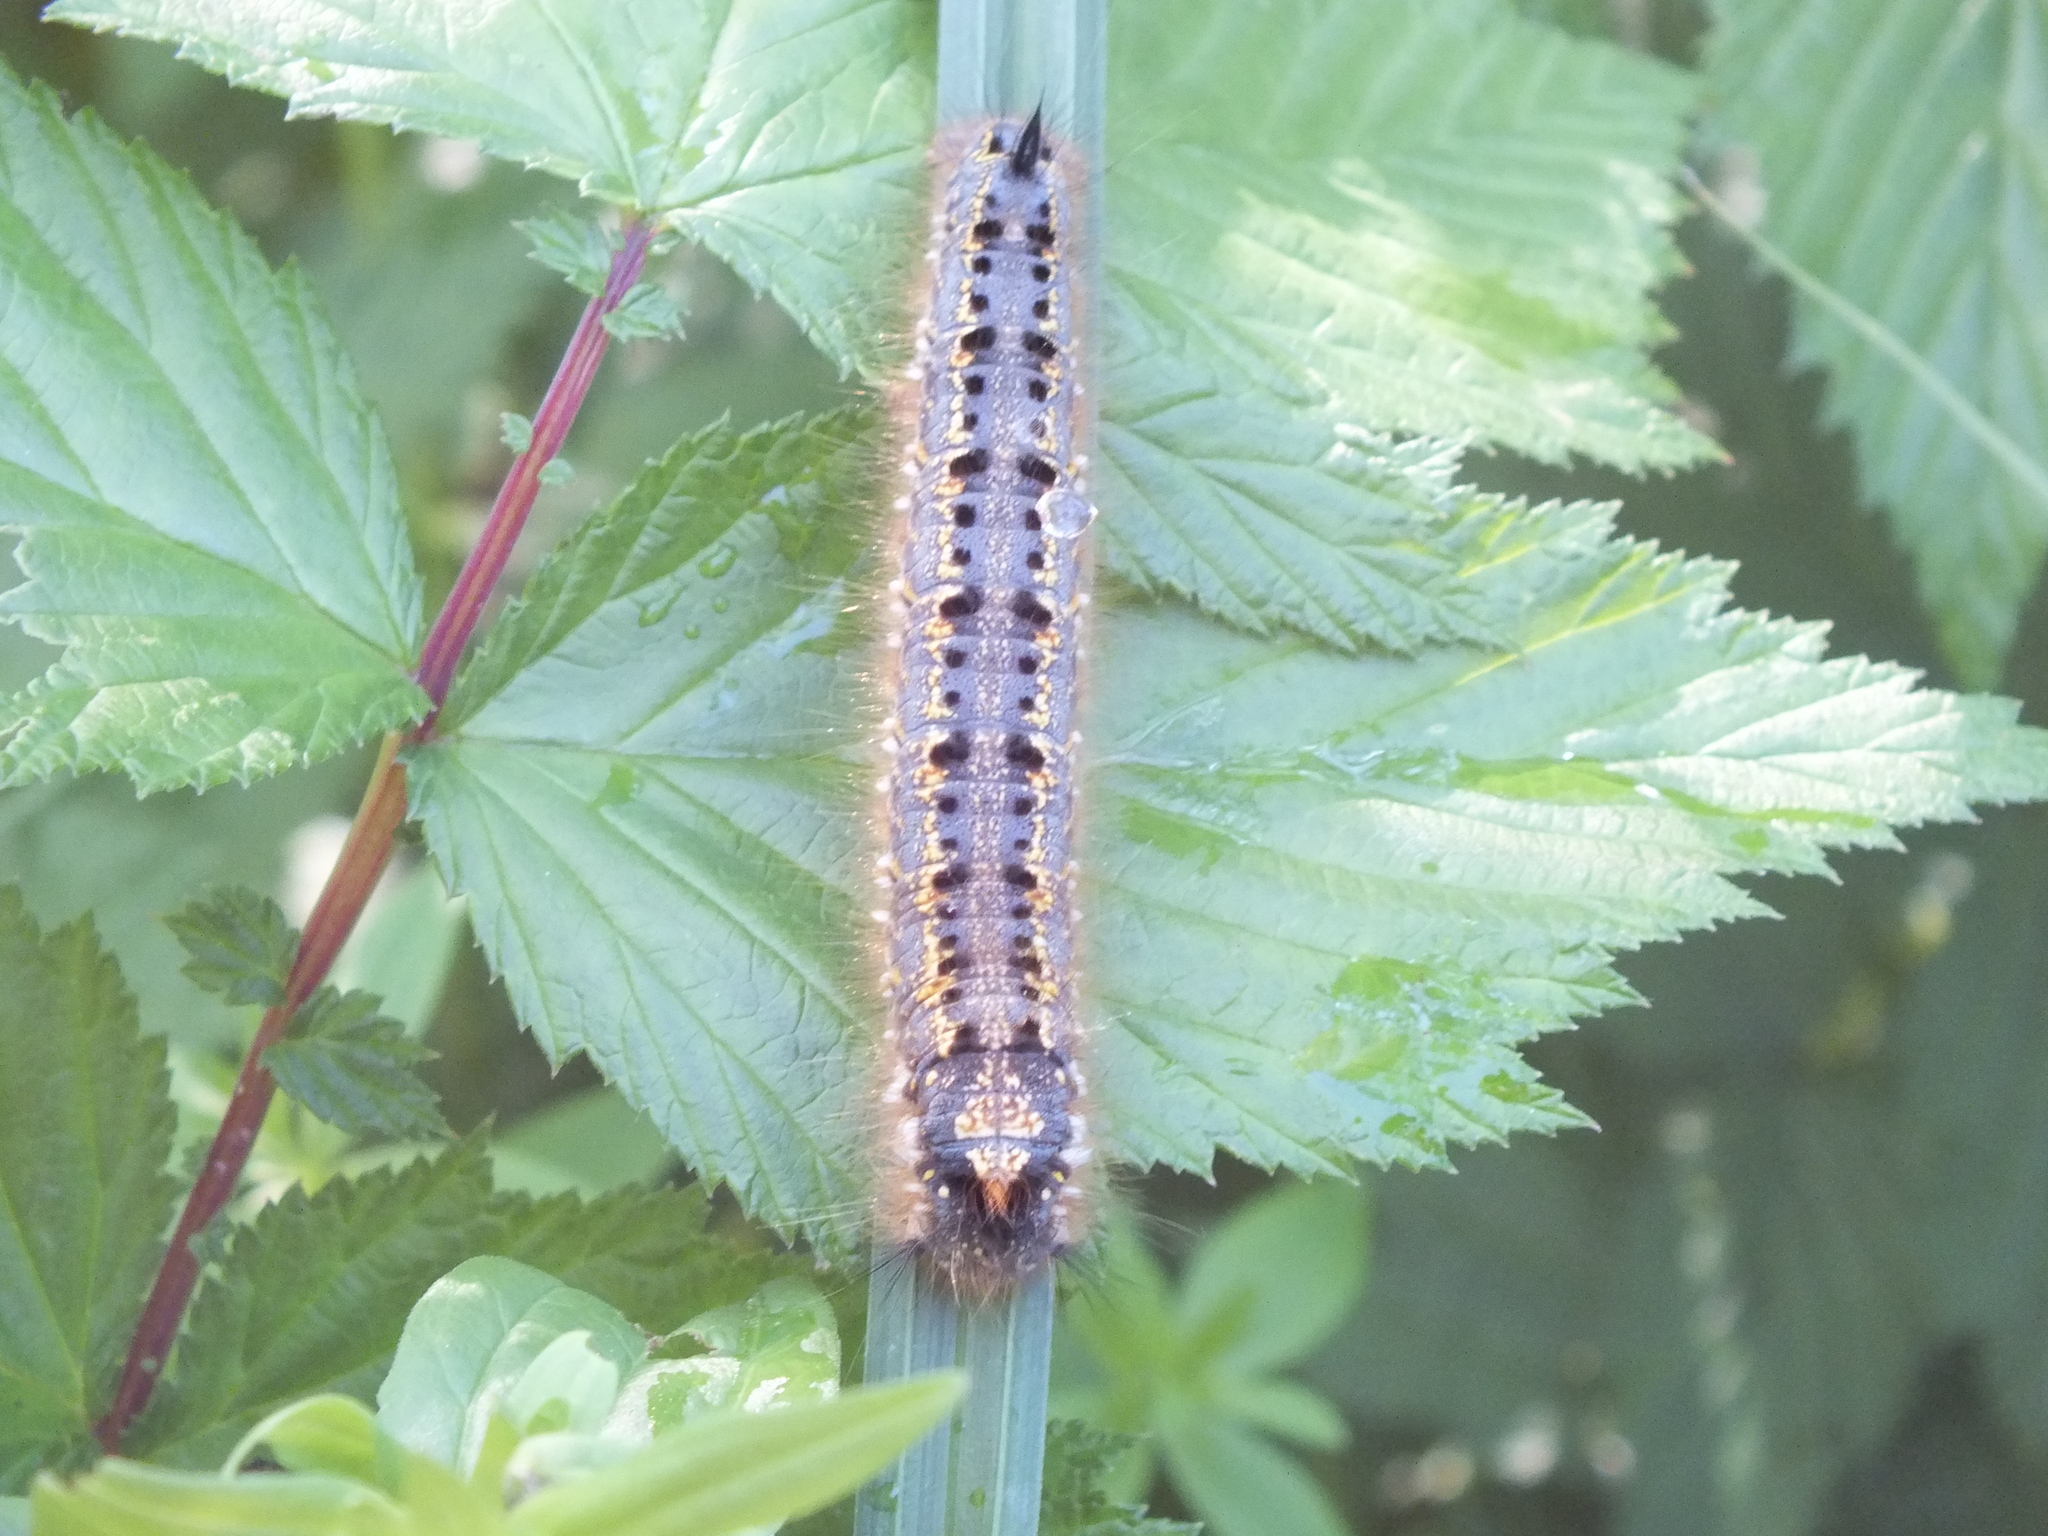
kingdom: Animalia
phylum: Arthropoda
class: Insecta
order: Lepidoptera
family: Lasiocampidae
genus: Euthrix
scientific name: Euthrix potatoria
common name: Drinker
